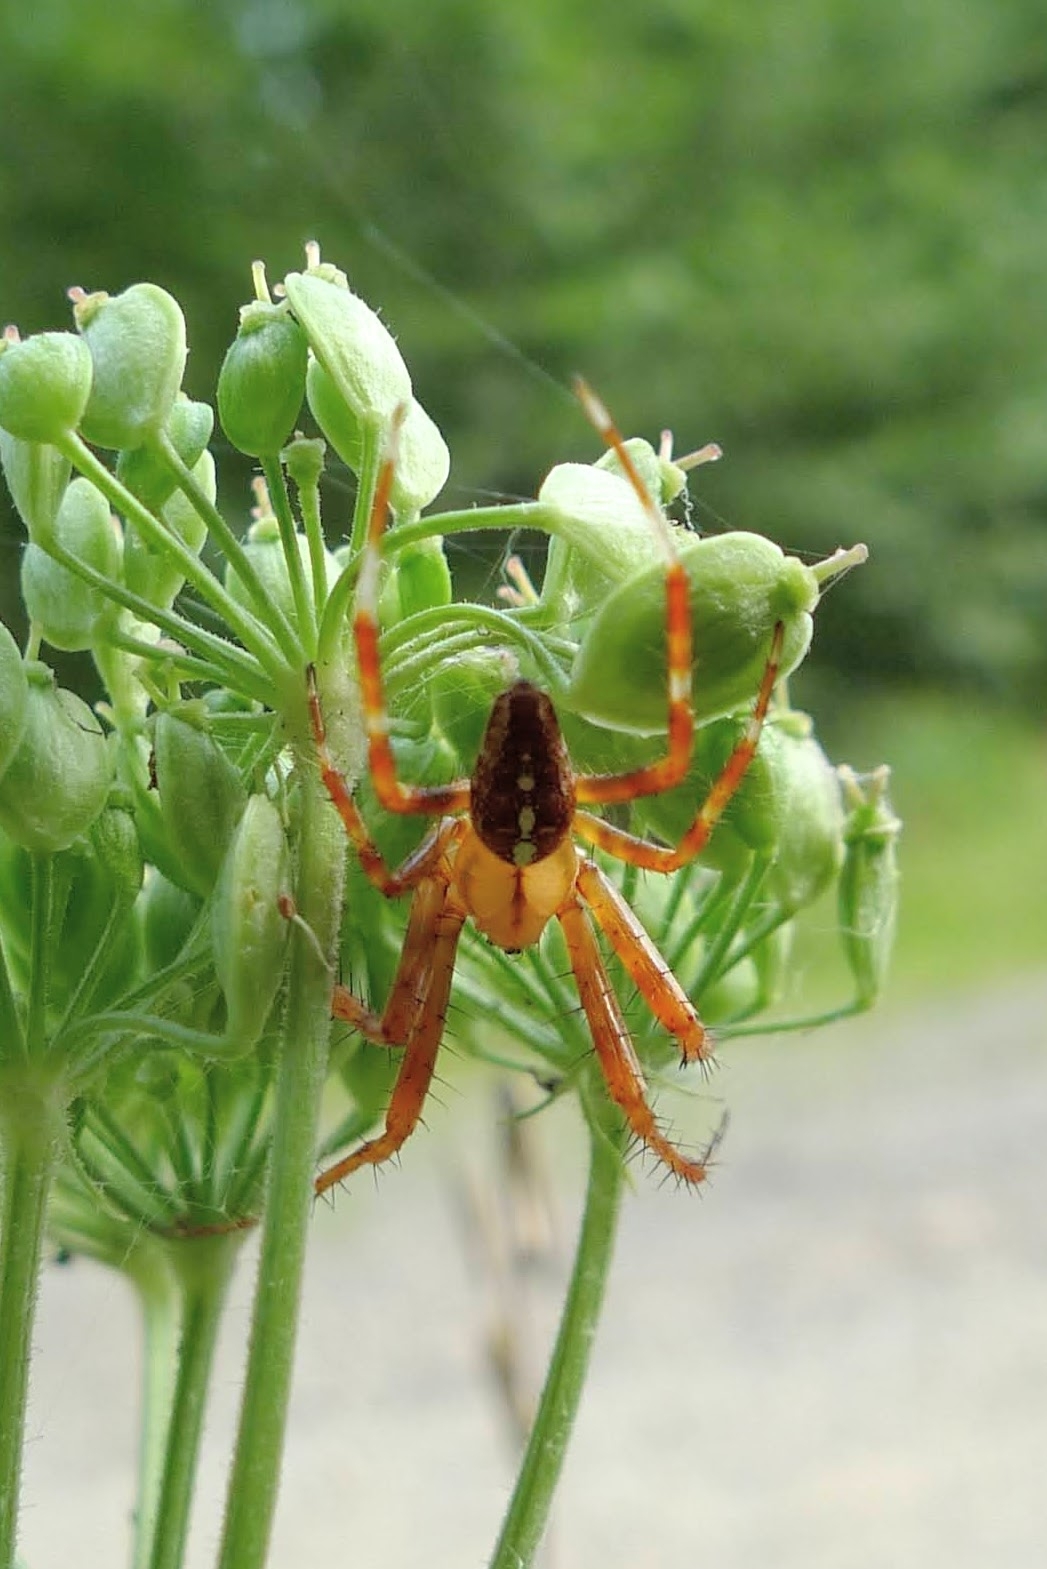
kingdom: Animalia
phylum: Arthropoda
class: Arachnida
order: Araneae
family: Araneidae
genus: Araneus
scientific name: Araneus diadematus
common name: Cross orbweaver
